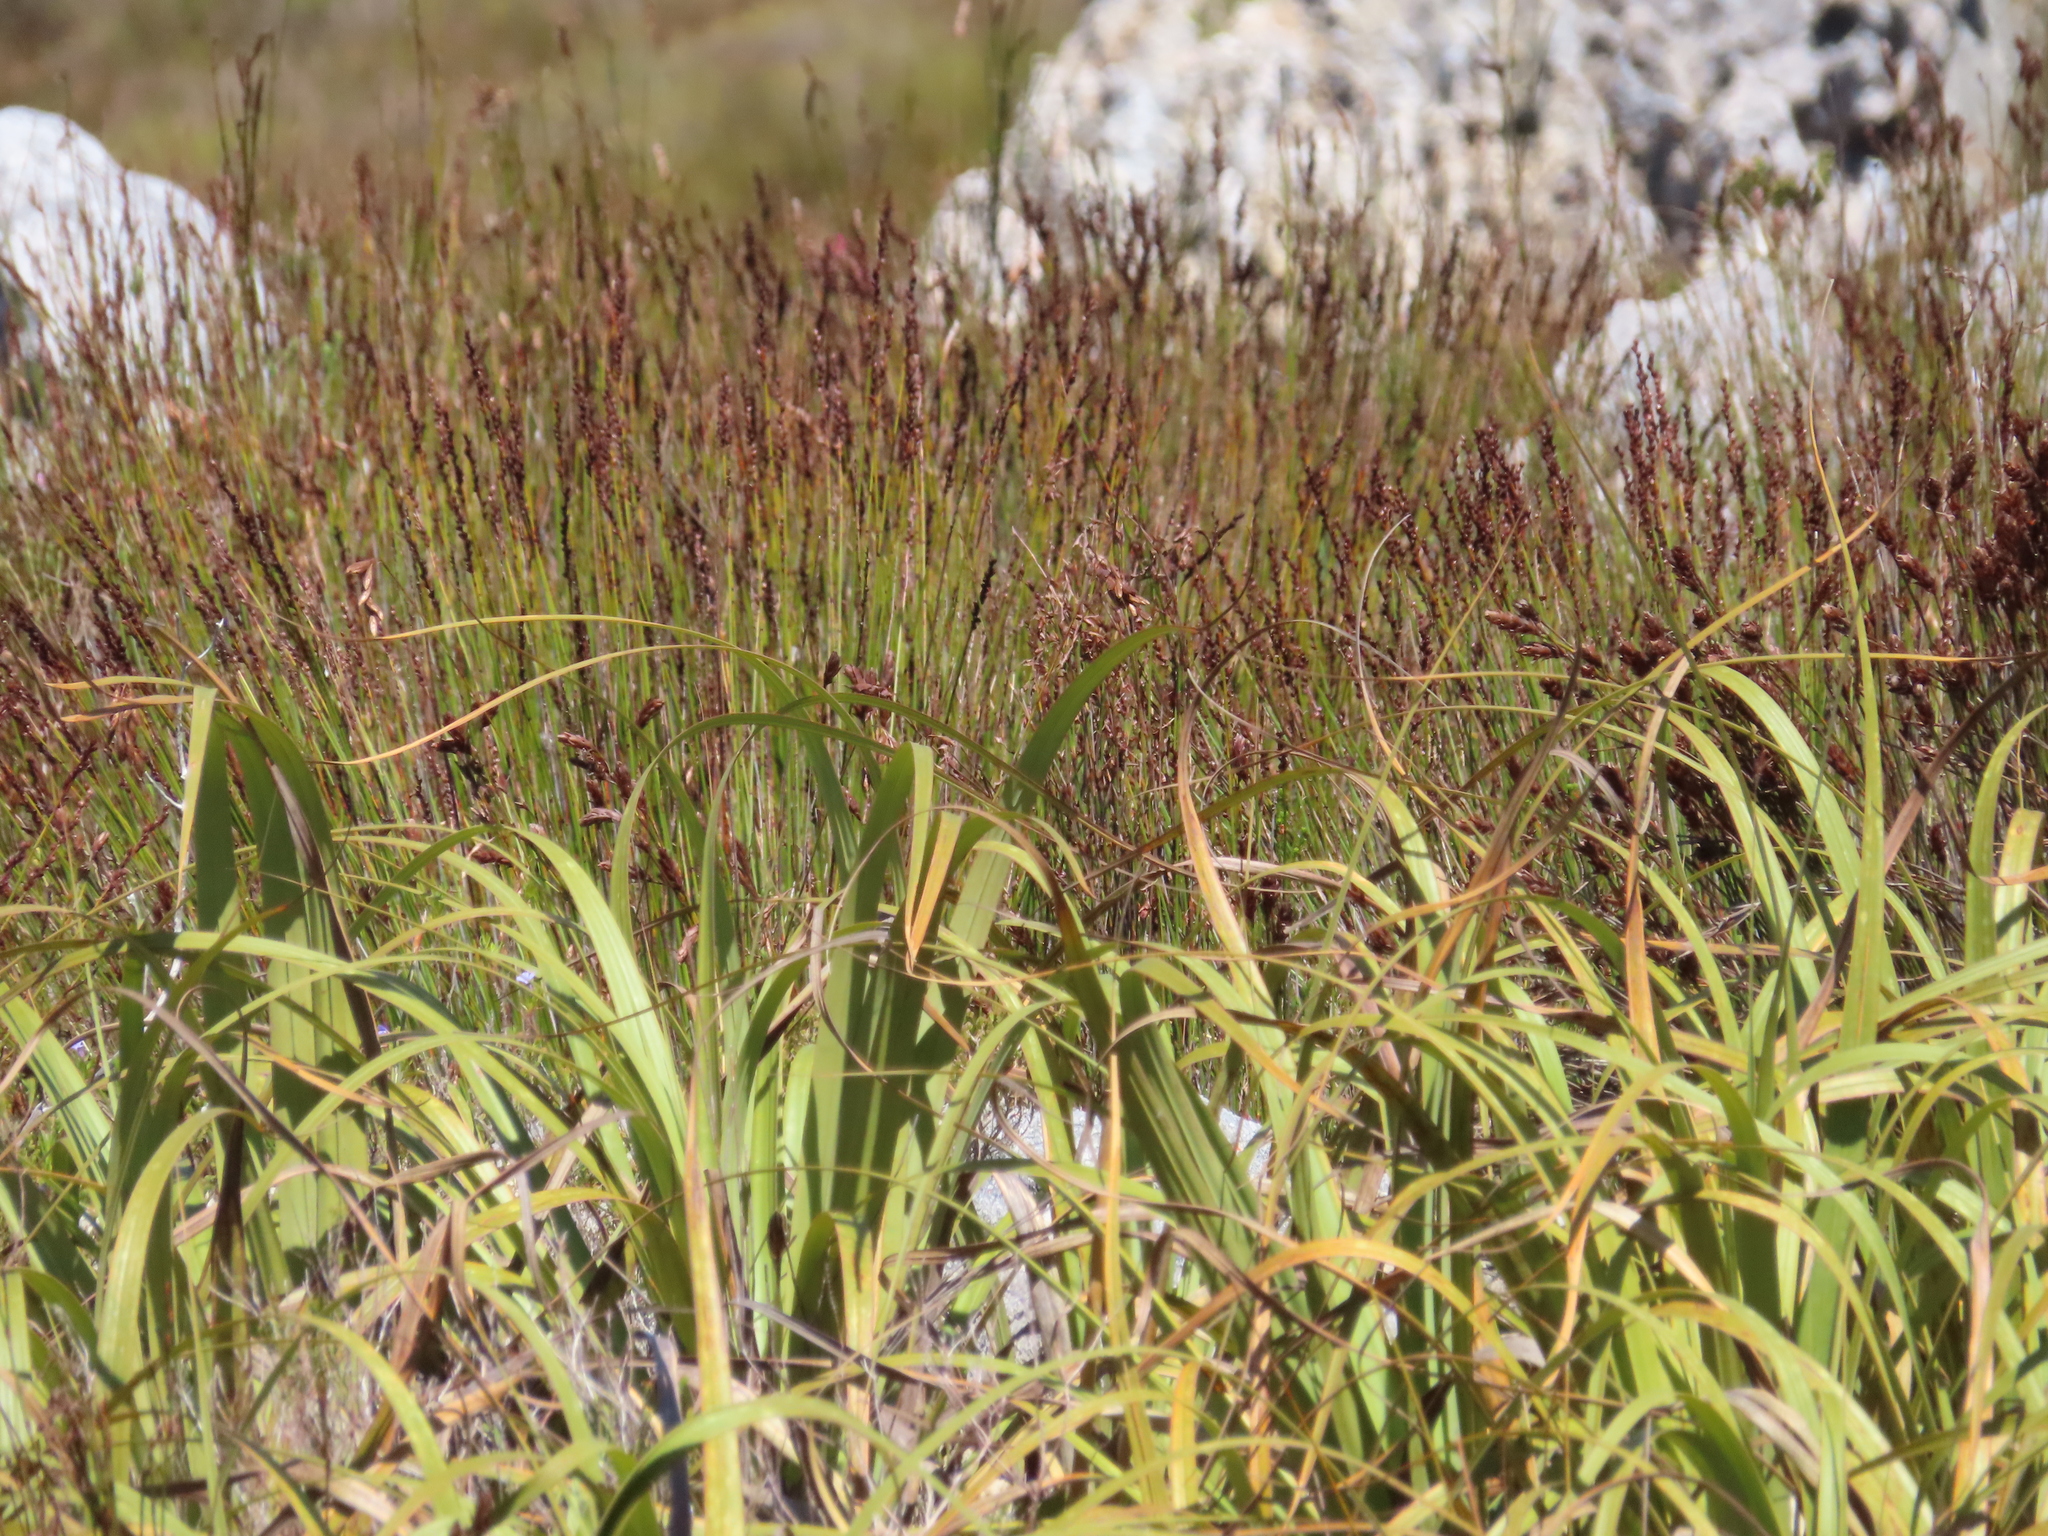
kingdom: Plantae
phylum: Tracheophyta
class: Liliopsida
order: Poales
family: Cyperaceae
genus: Tetraria
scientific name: Tetraria thermalis
